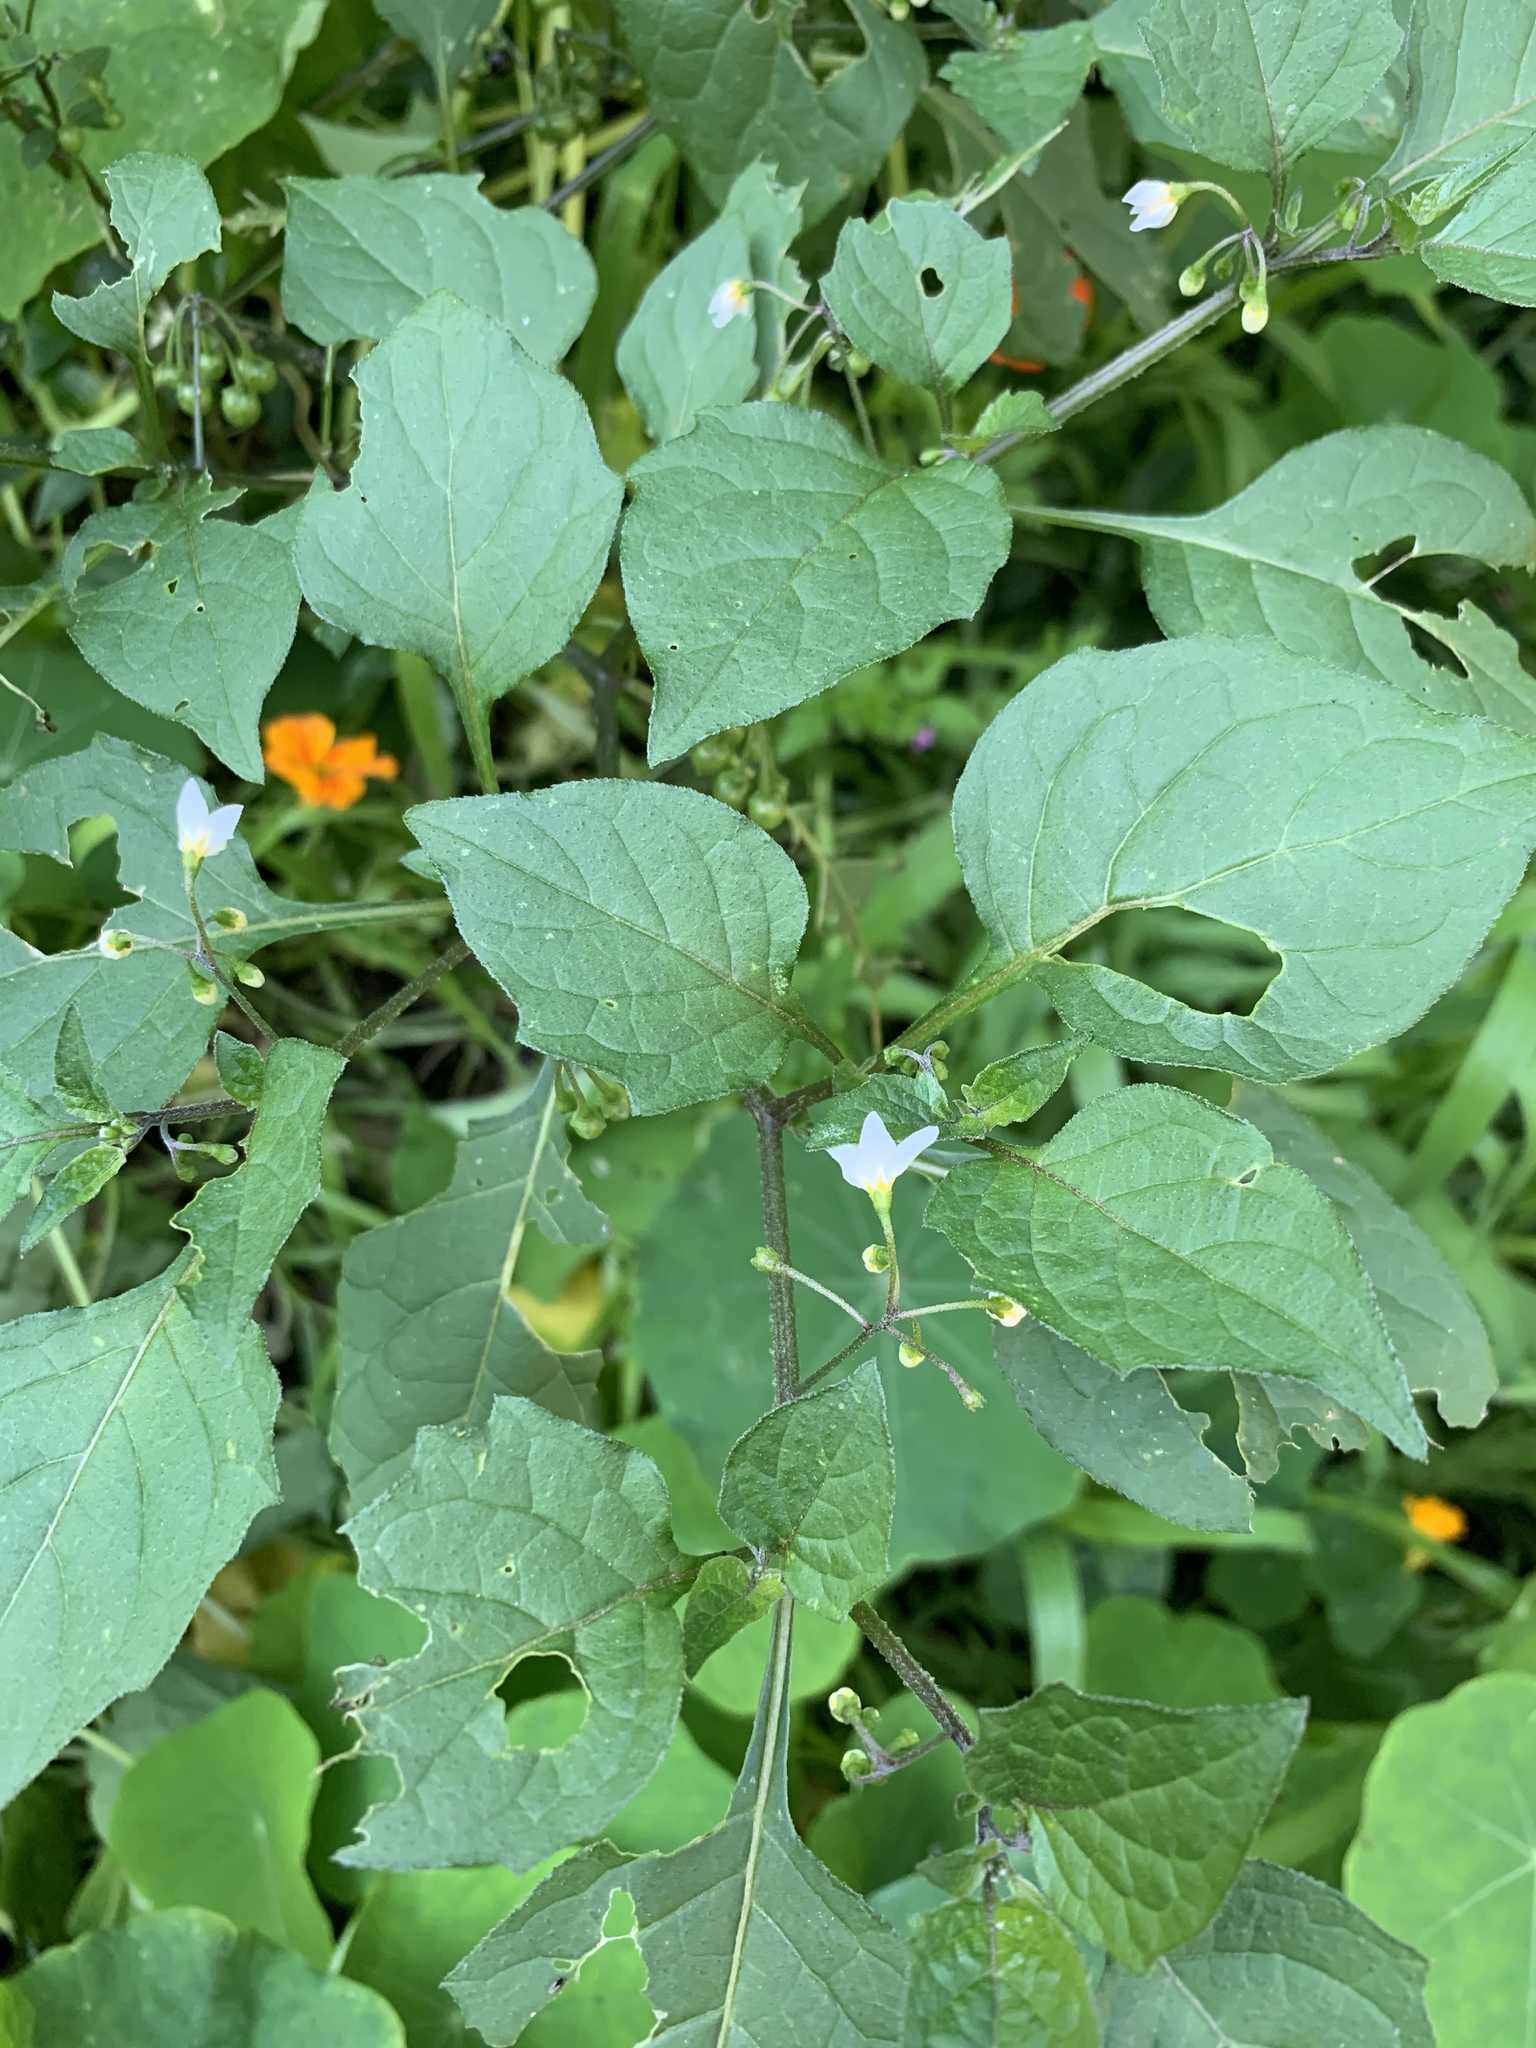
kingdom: Plantae
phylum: Tracheophyta
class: Magnoliopsida
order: Solanales
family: Solanaceae
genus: Solanum
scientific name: Solanum nigrum
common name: Black nightshade
